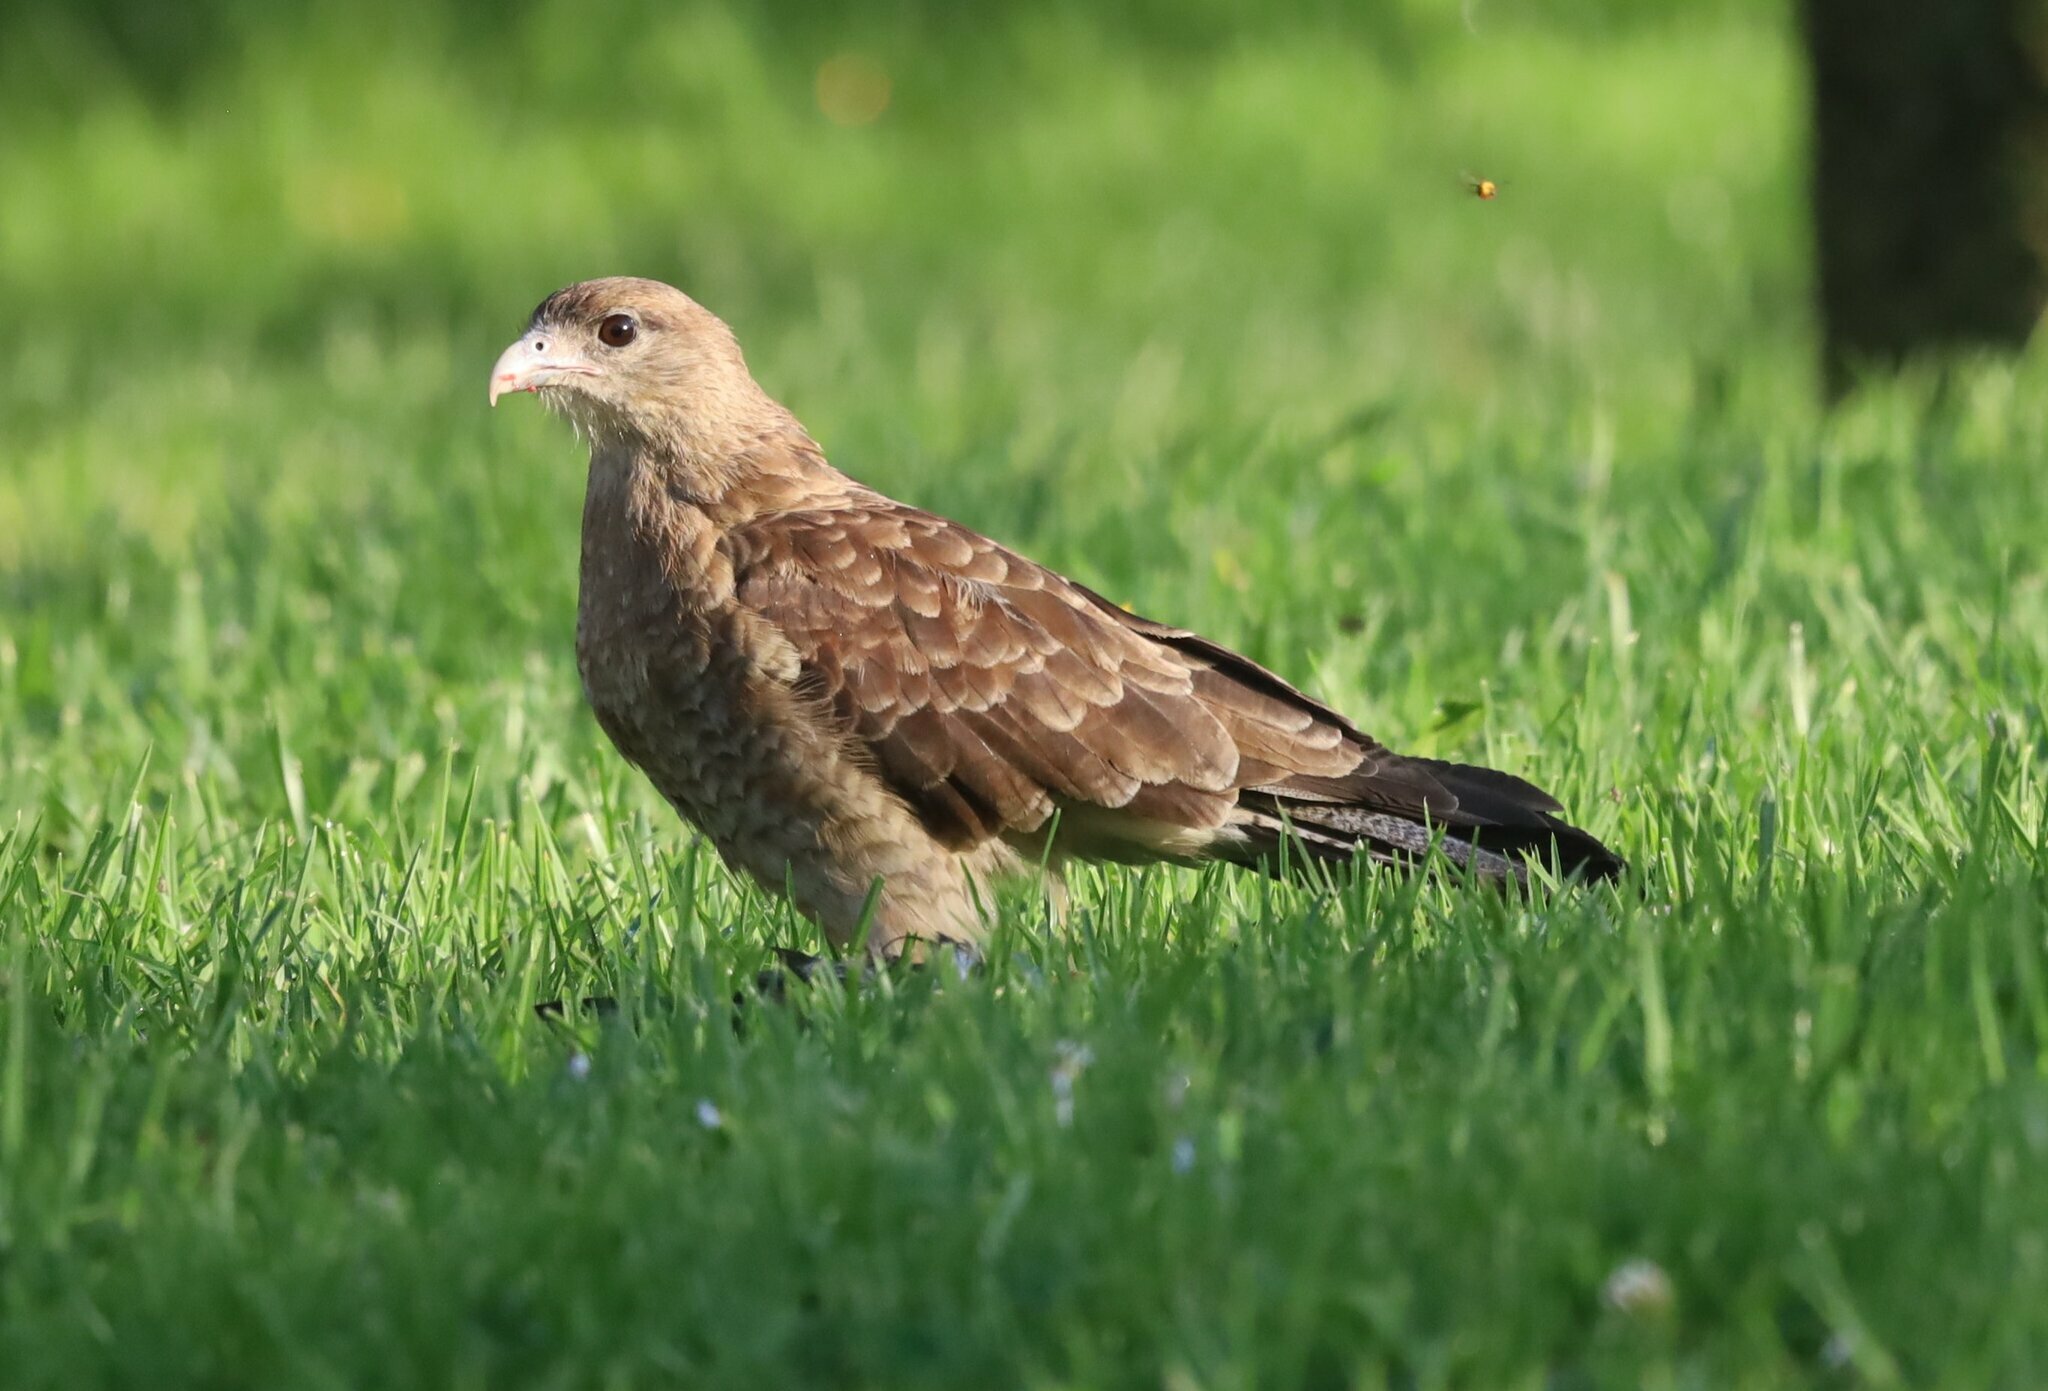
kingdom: Animalia
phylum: Chordata
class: Aves
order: Falconiformes
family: Falconidae
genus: Daptrius
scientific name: Daptrius
